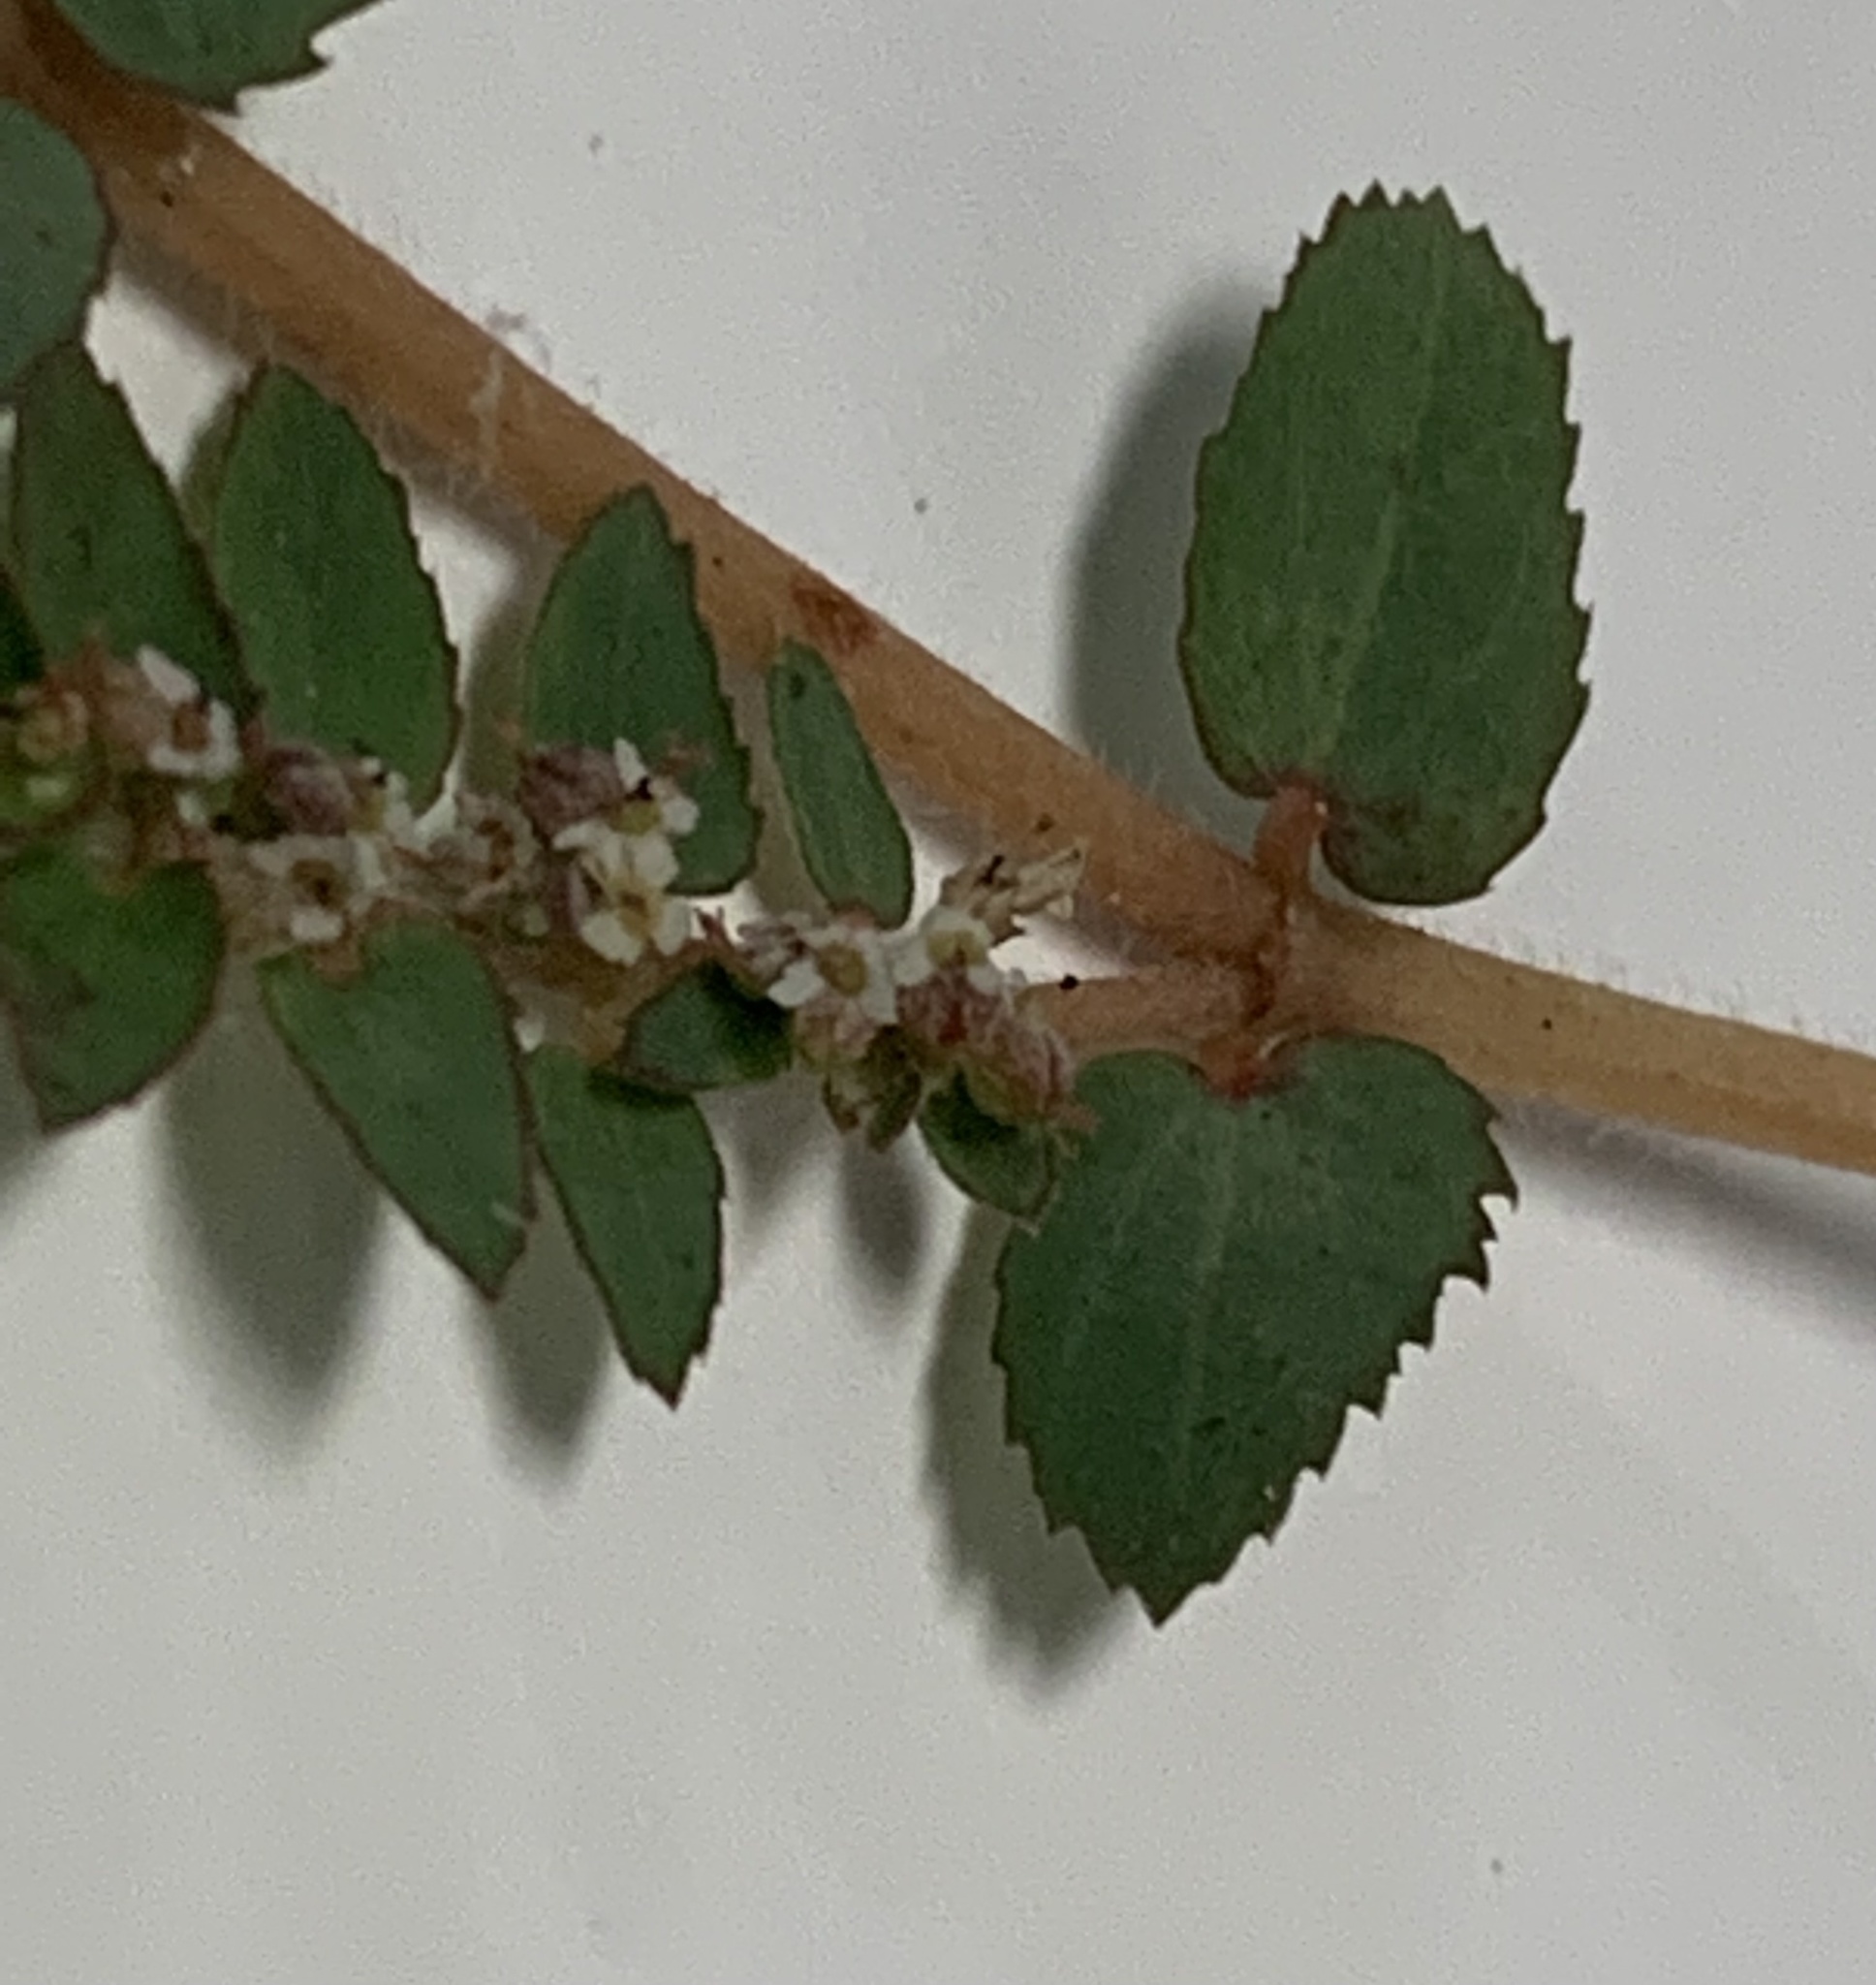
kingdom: Plantae
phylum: Tracheophyta
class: Magnoliopsida
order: Malpighiales
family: Euphorbiaceae
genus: Euphorbia
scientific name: Euphorbia thymifolia
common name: Gulf sandmat
